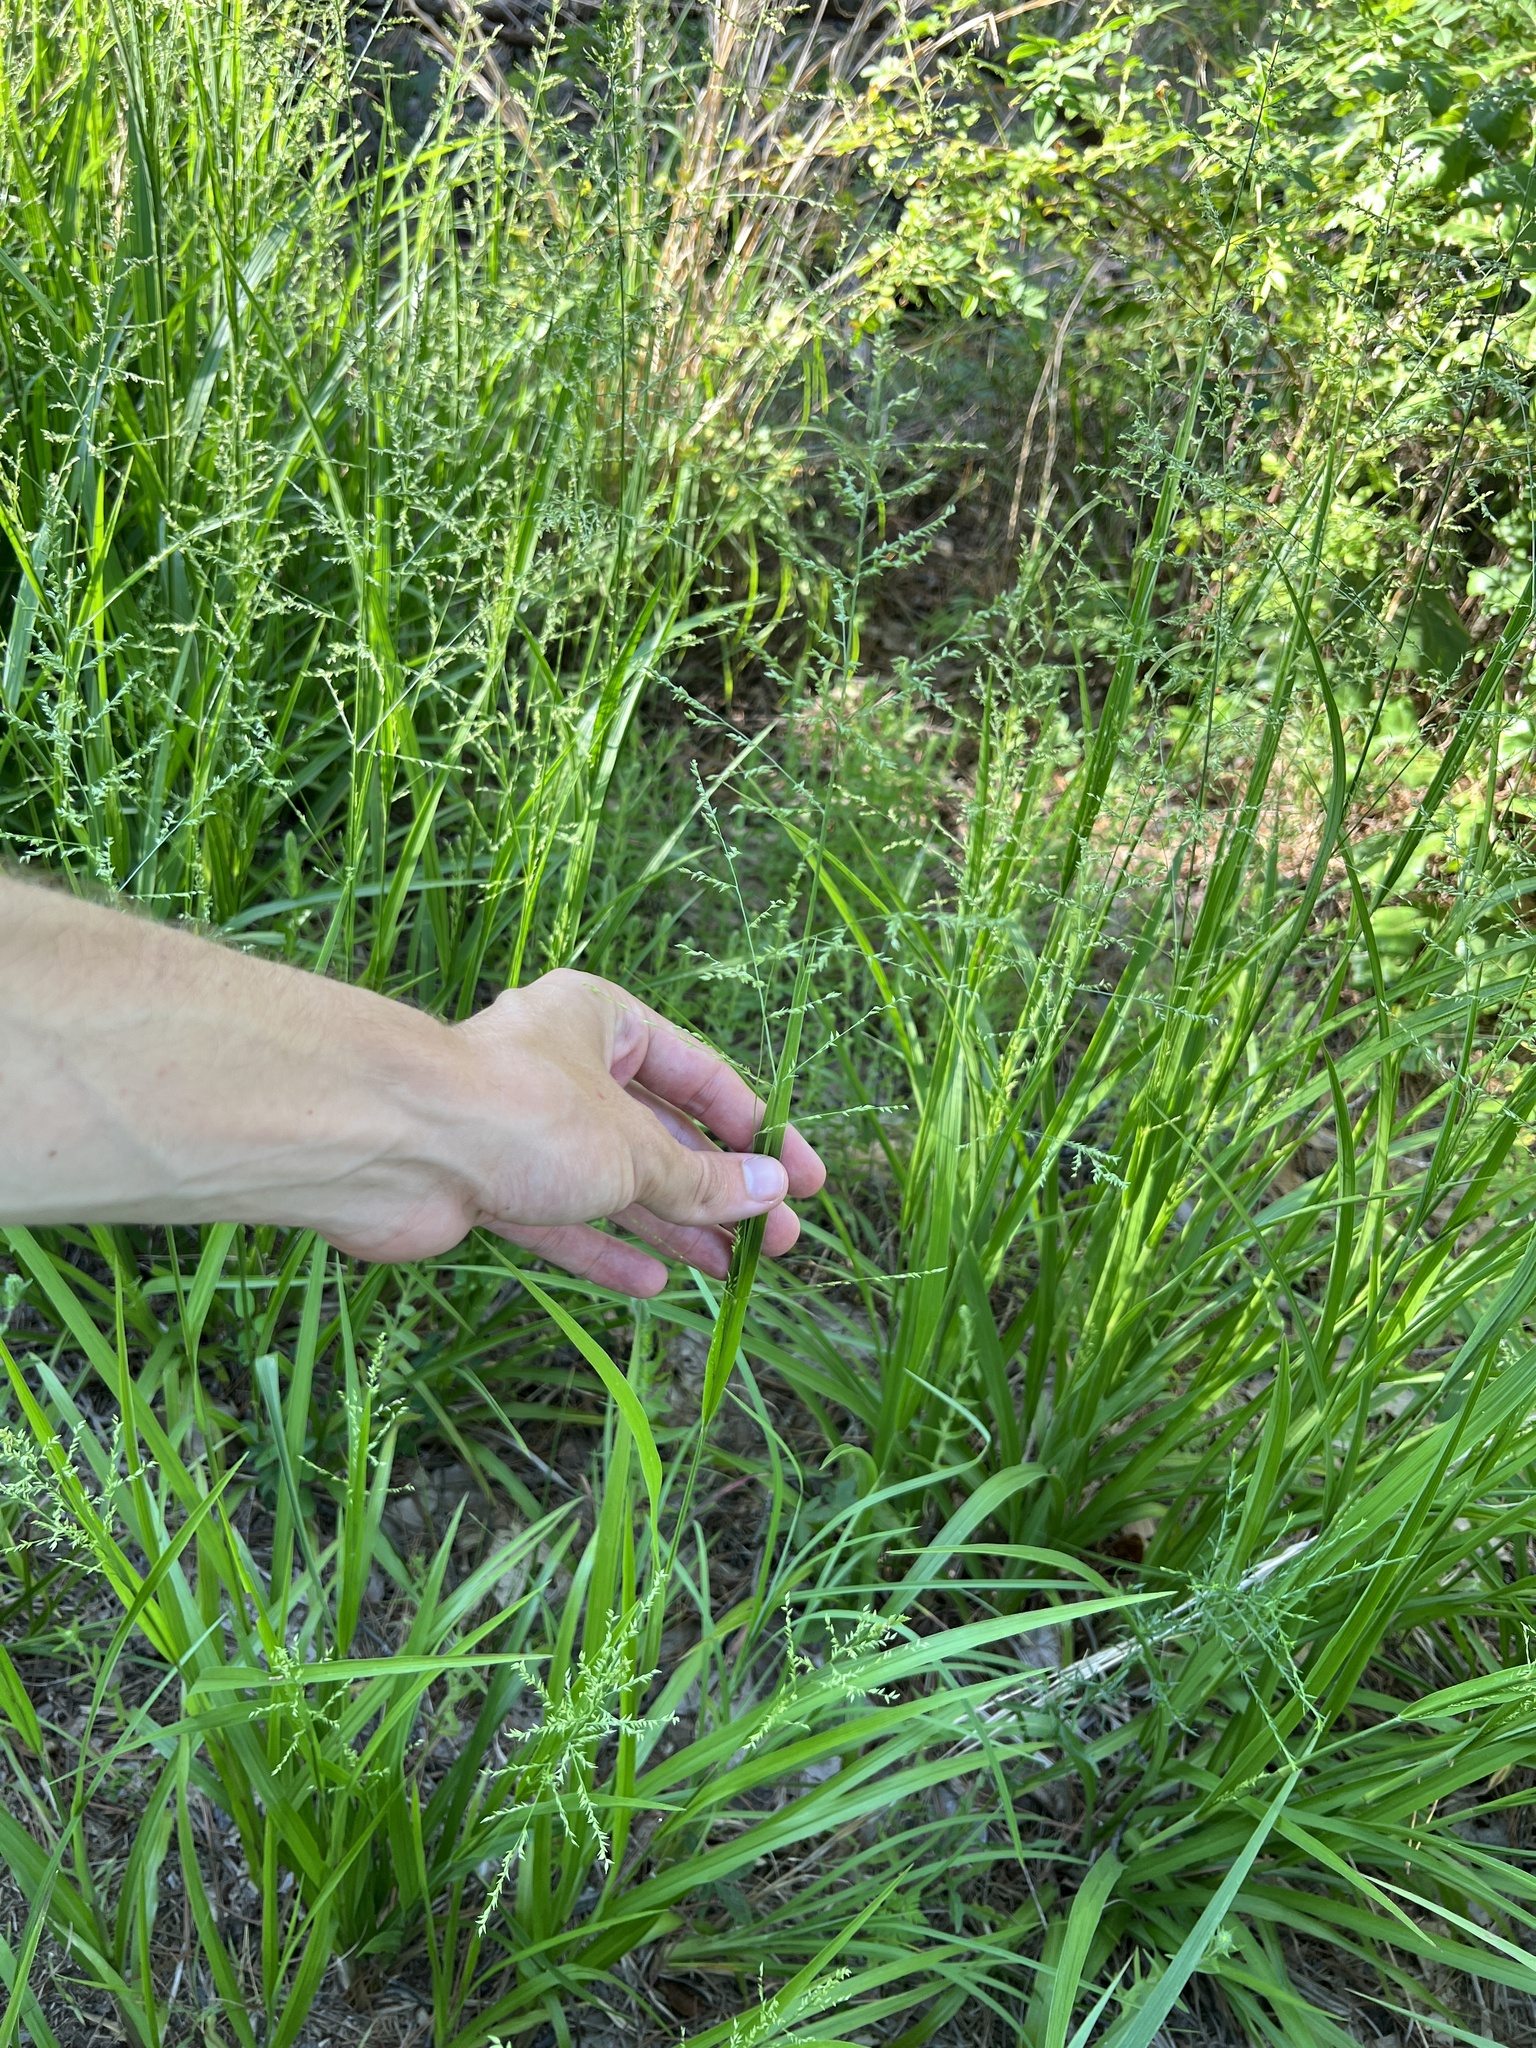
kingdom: Plantae
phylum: Tracheophyta
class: Liliopsida
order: Poales
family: Poaceae
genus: Coleataenia
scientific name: Coleataenia anceps
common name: Beaked panic grass
